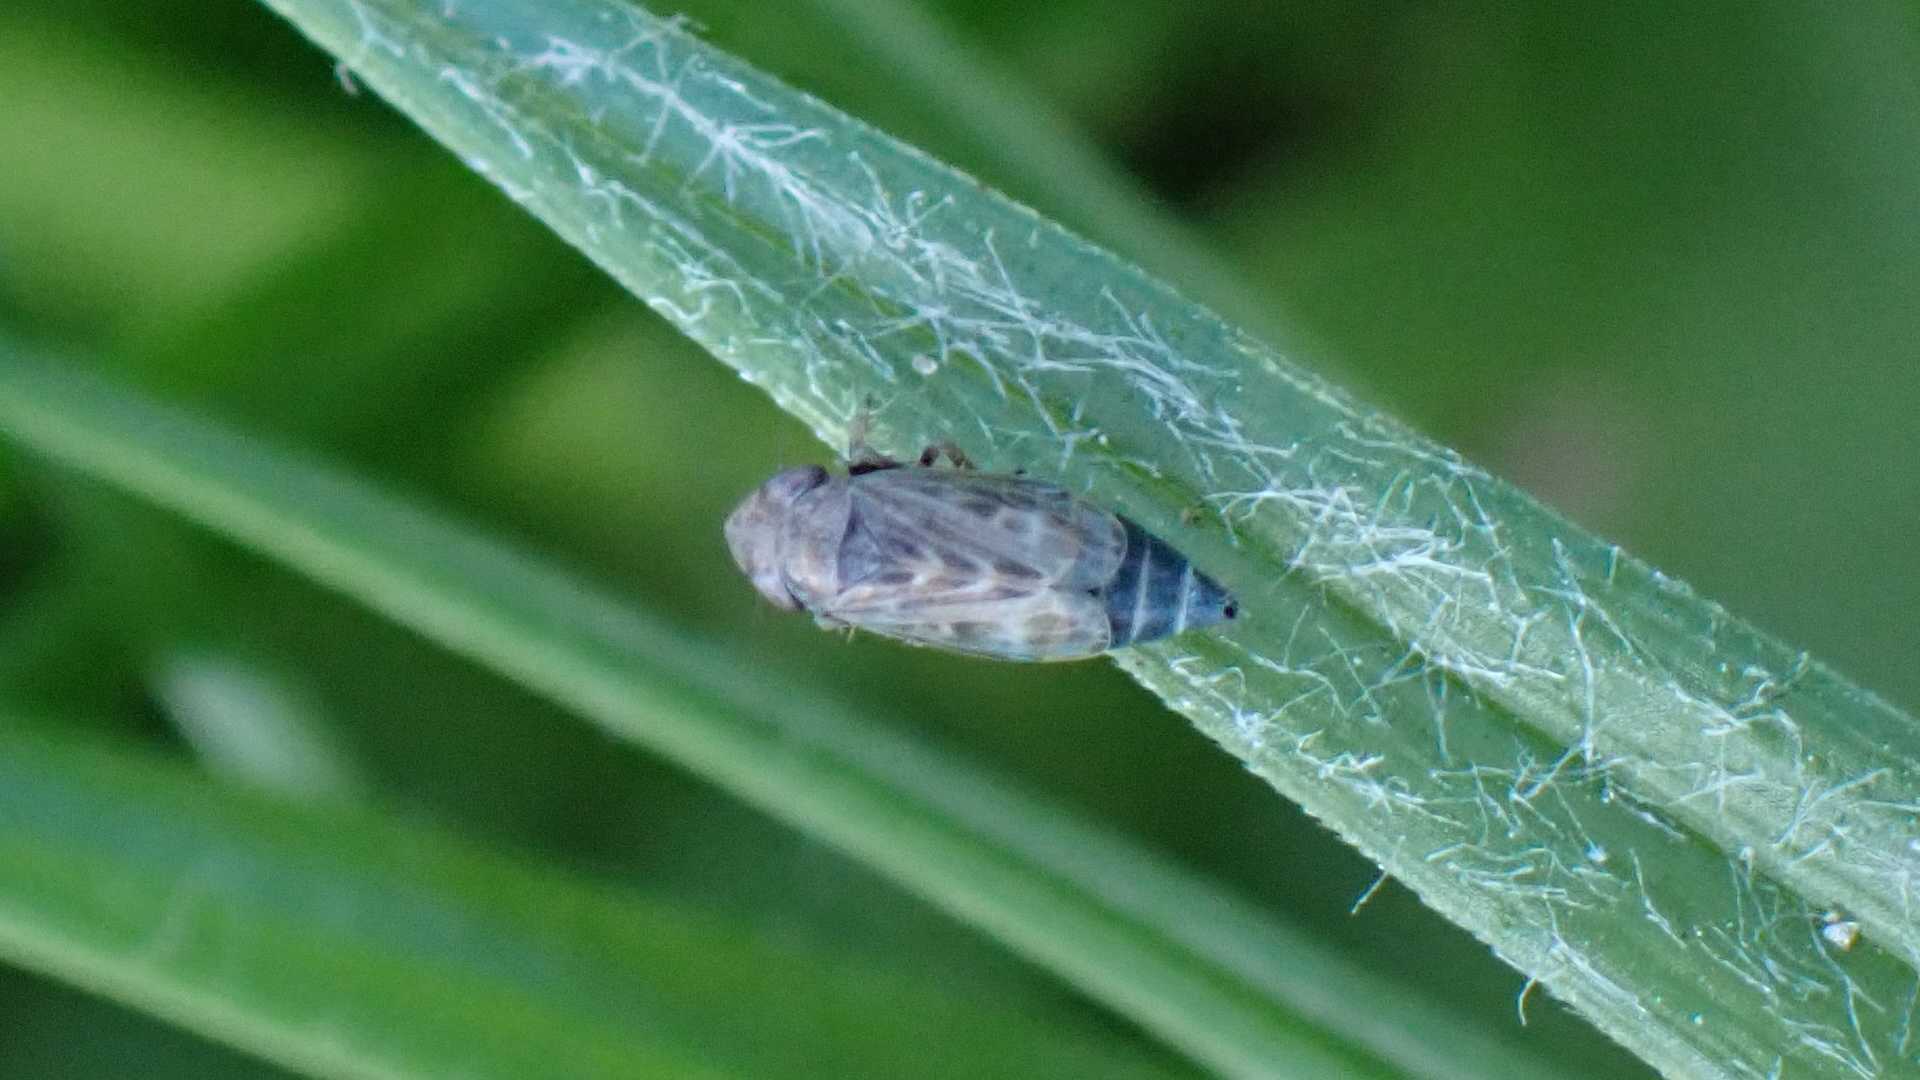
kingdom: Animalia
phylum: Arthropoda
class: Insecta
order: Hemiptera
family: Cicadellidae
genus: Deltocephalus
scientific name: Deltocephalus pulicaris
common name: Leafhopper
